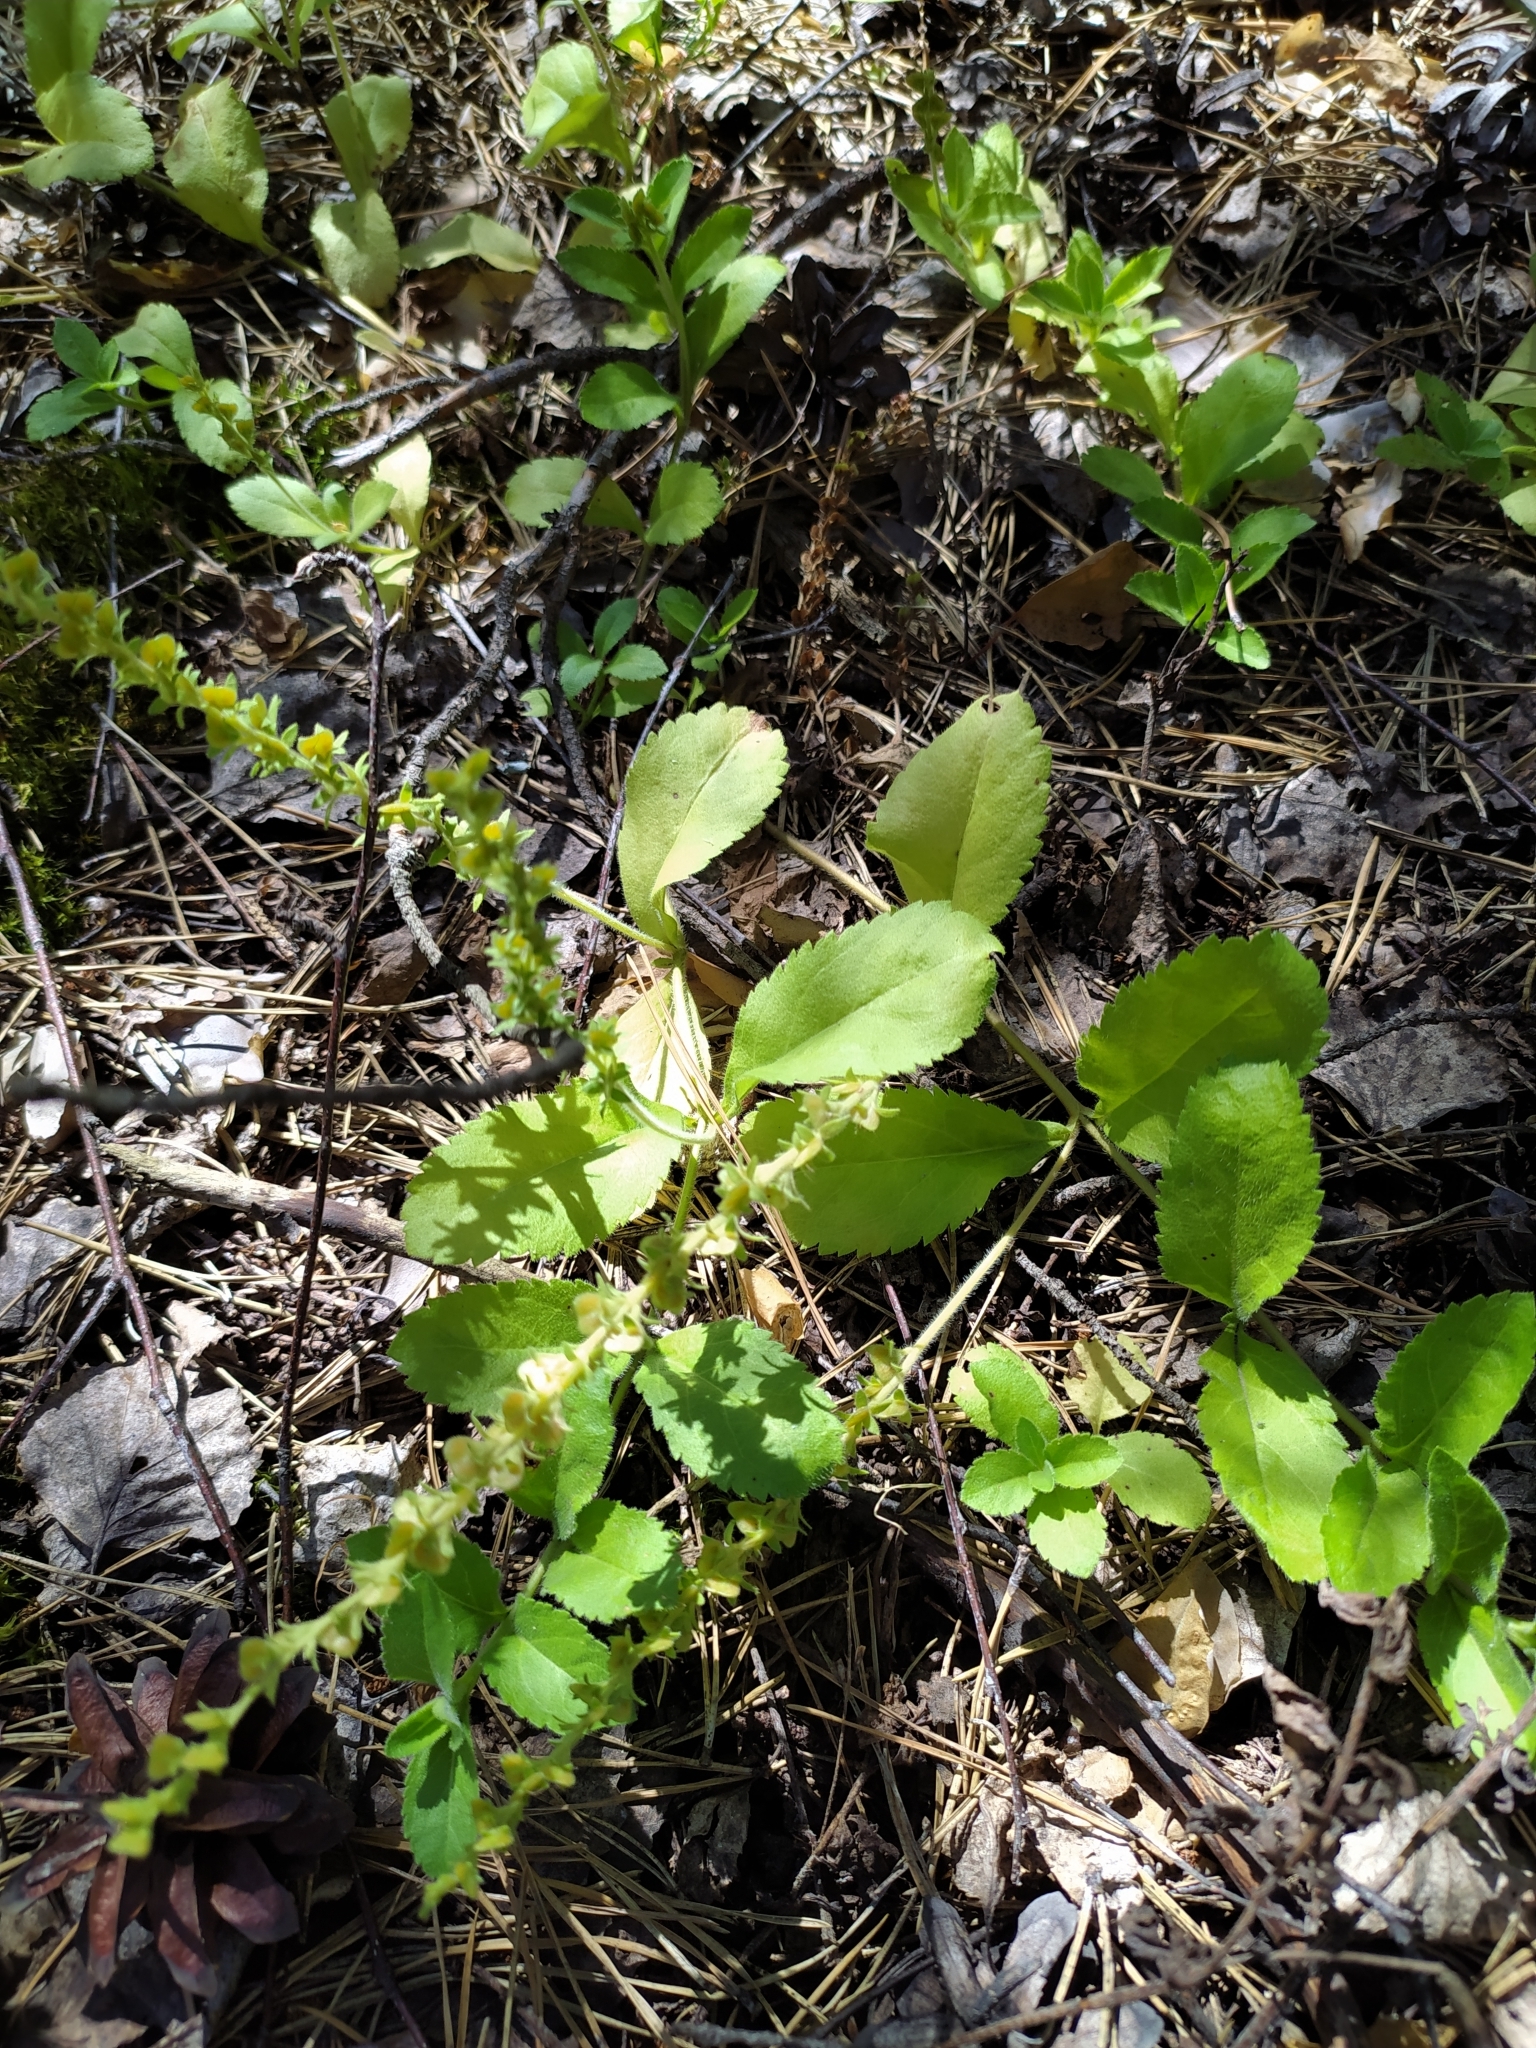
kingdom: Plantae
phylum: Tracheophyta
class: Magnoliopsida
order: Lamiales
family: Plantaginaceae
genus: Veronica
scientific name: Veronica officinalis
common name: Common speedwell
